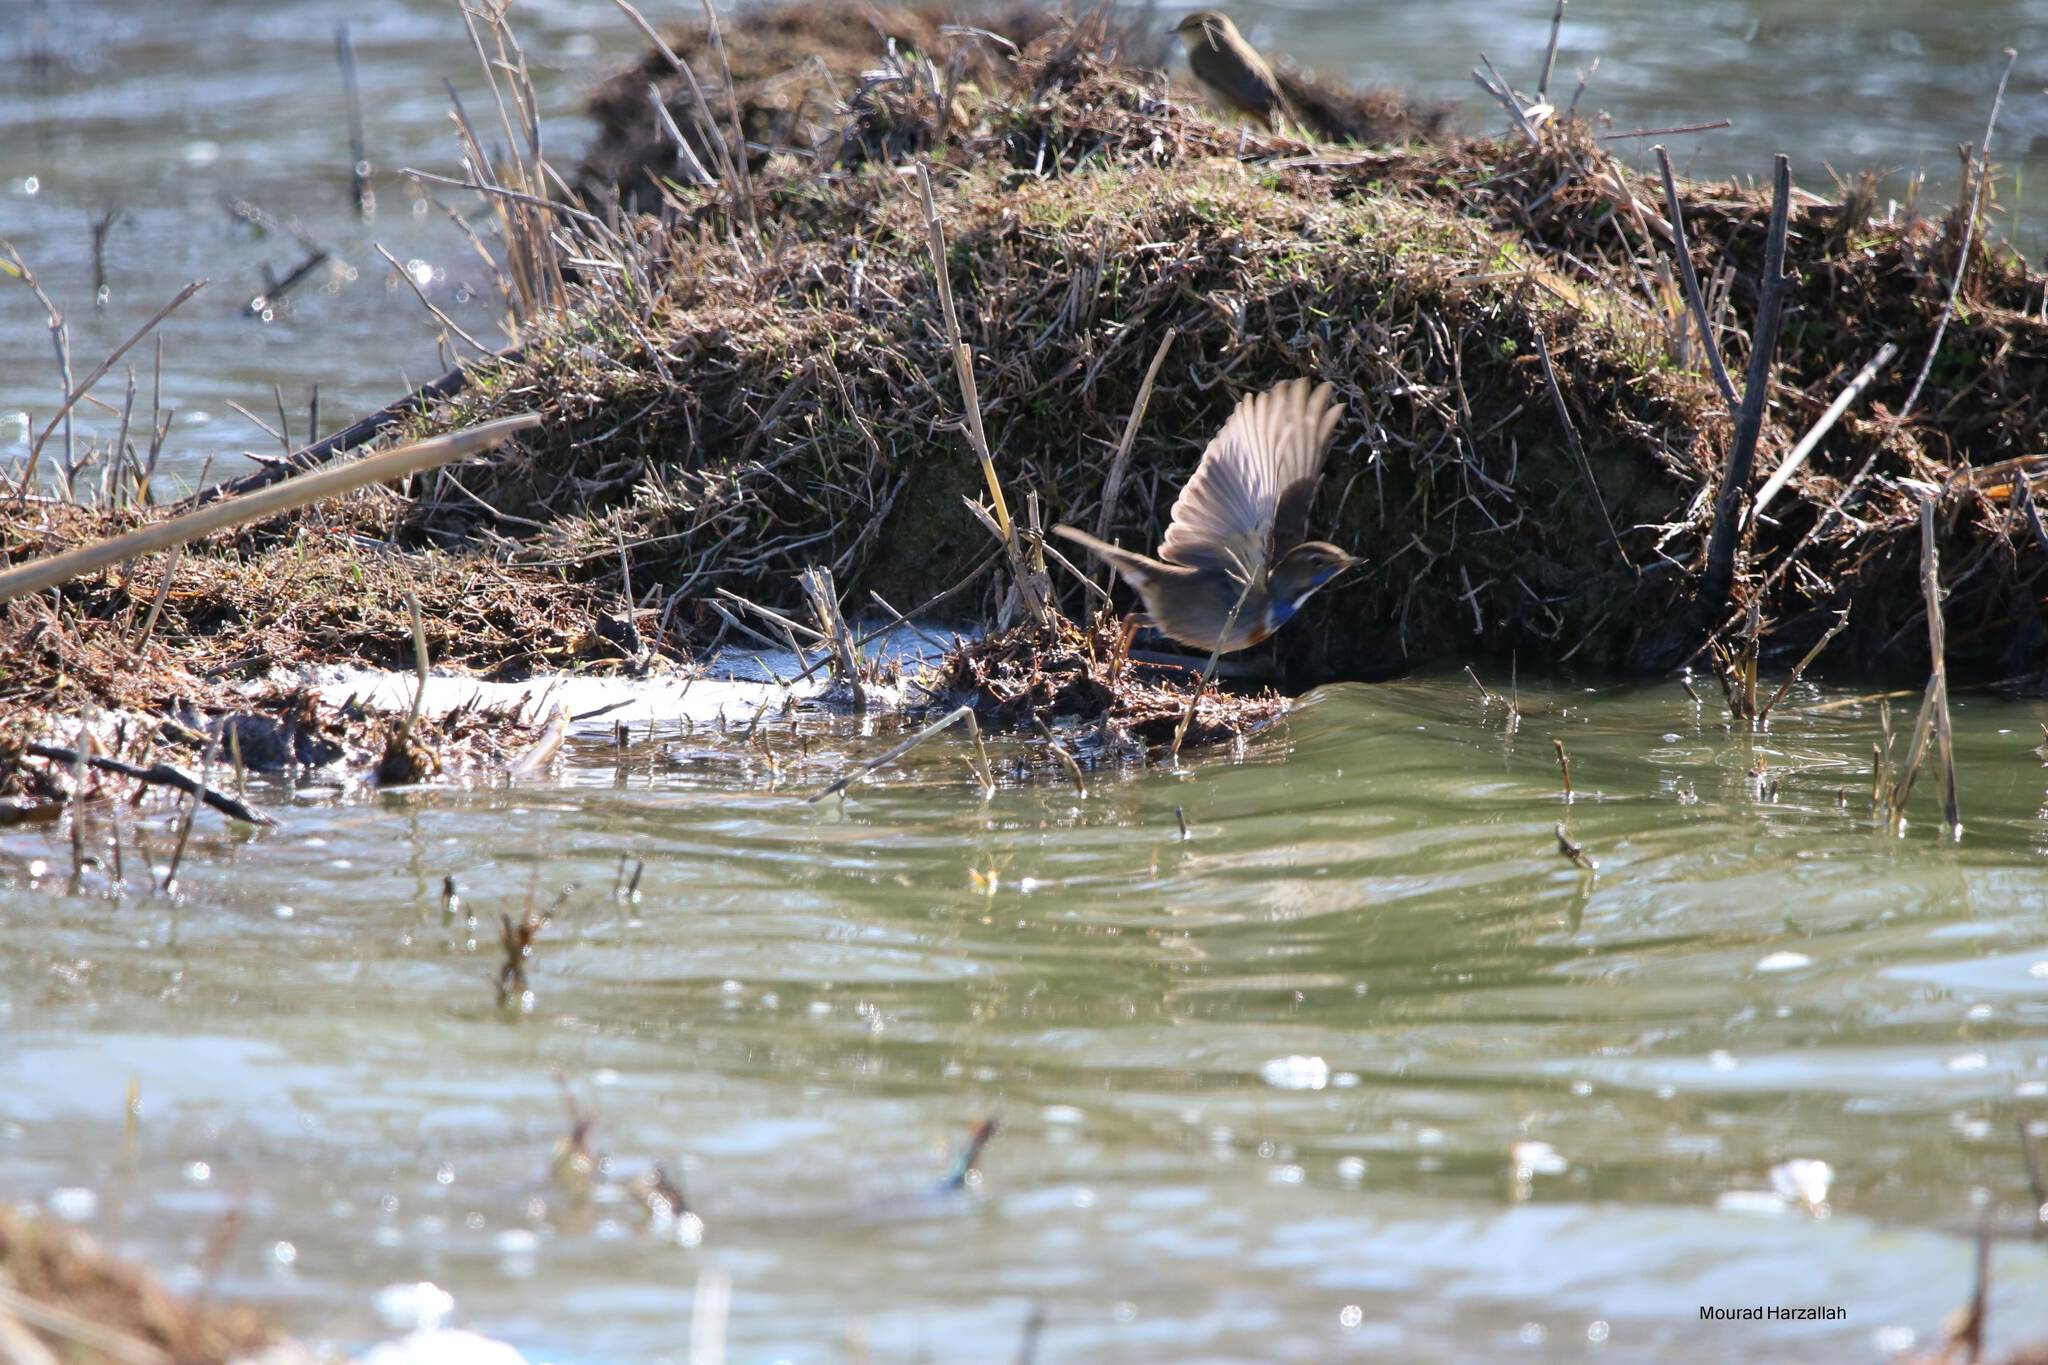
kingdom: Animalia
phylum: Chordata
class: Aves
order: Passeriformes
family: Muscicapidae
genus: Luscinia
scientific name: Luscinia svecica
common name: Bluethroat
